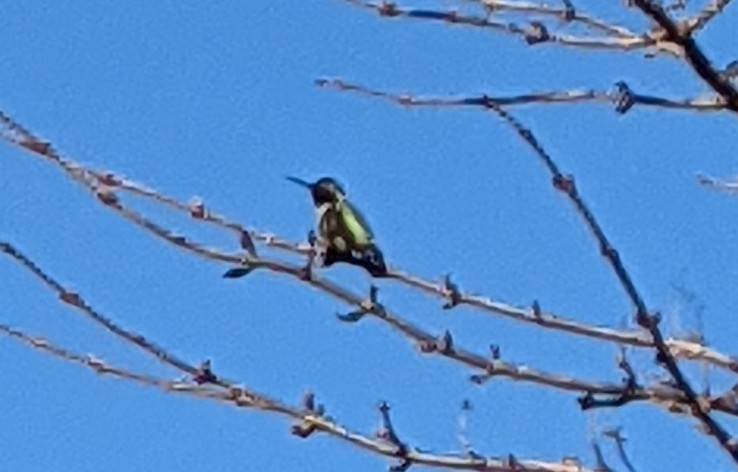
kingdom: Animalia
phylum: Chordata
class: Aves
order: Apodiformes
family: Trochilidae
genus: Calypte
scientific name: Calypte anna
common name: Anna's hummingbird
